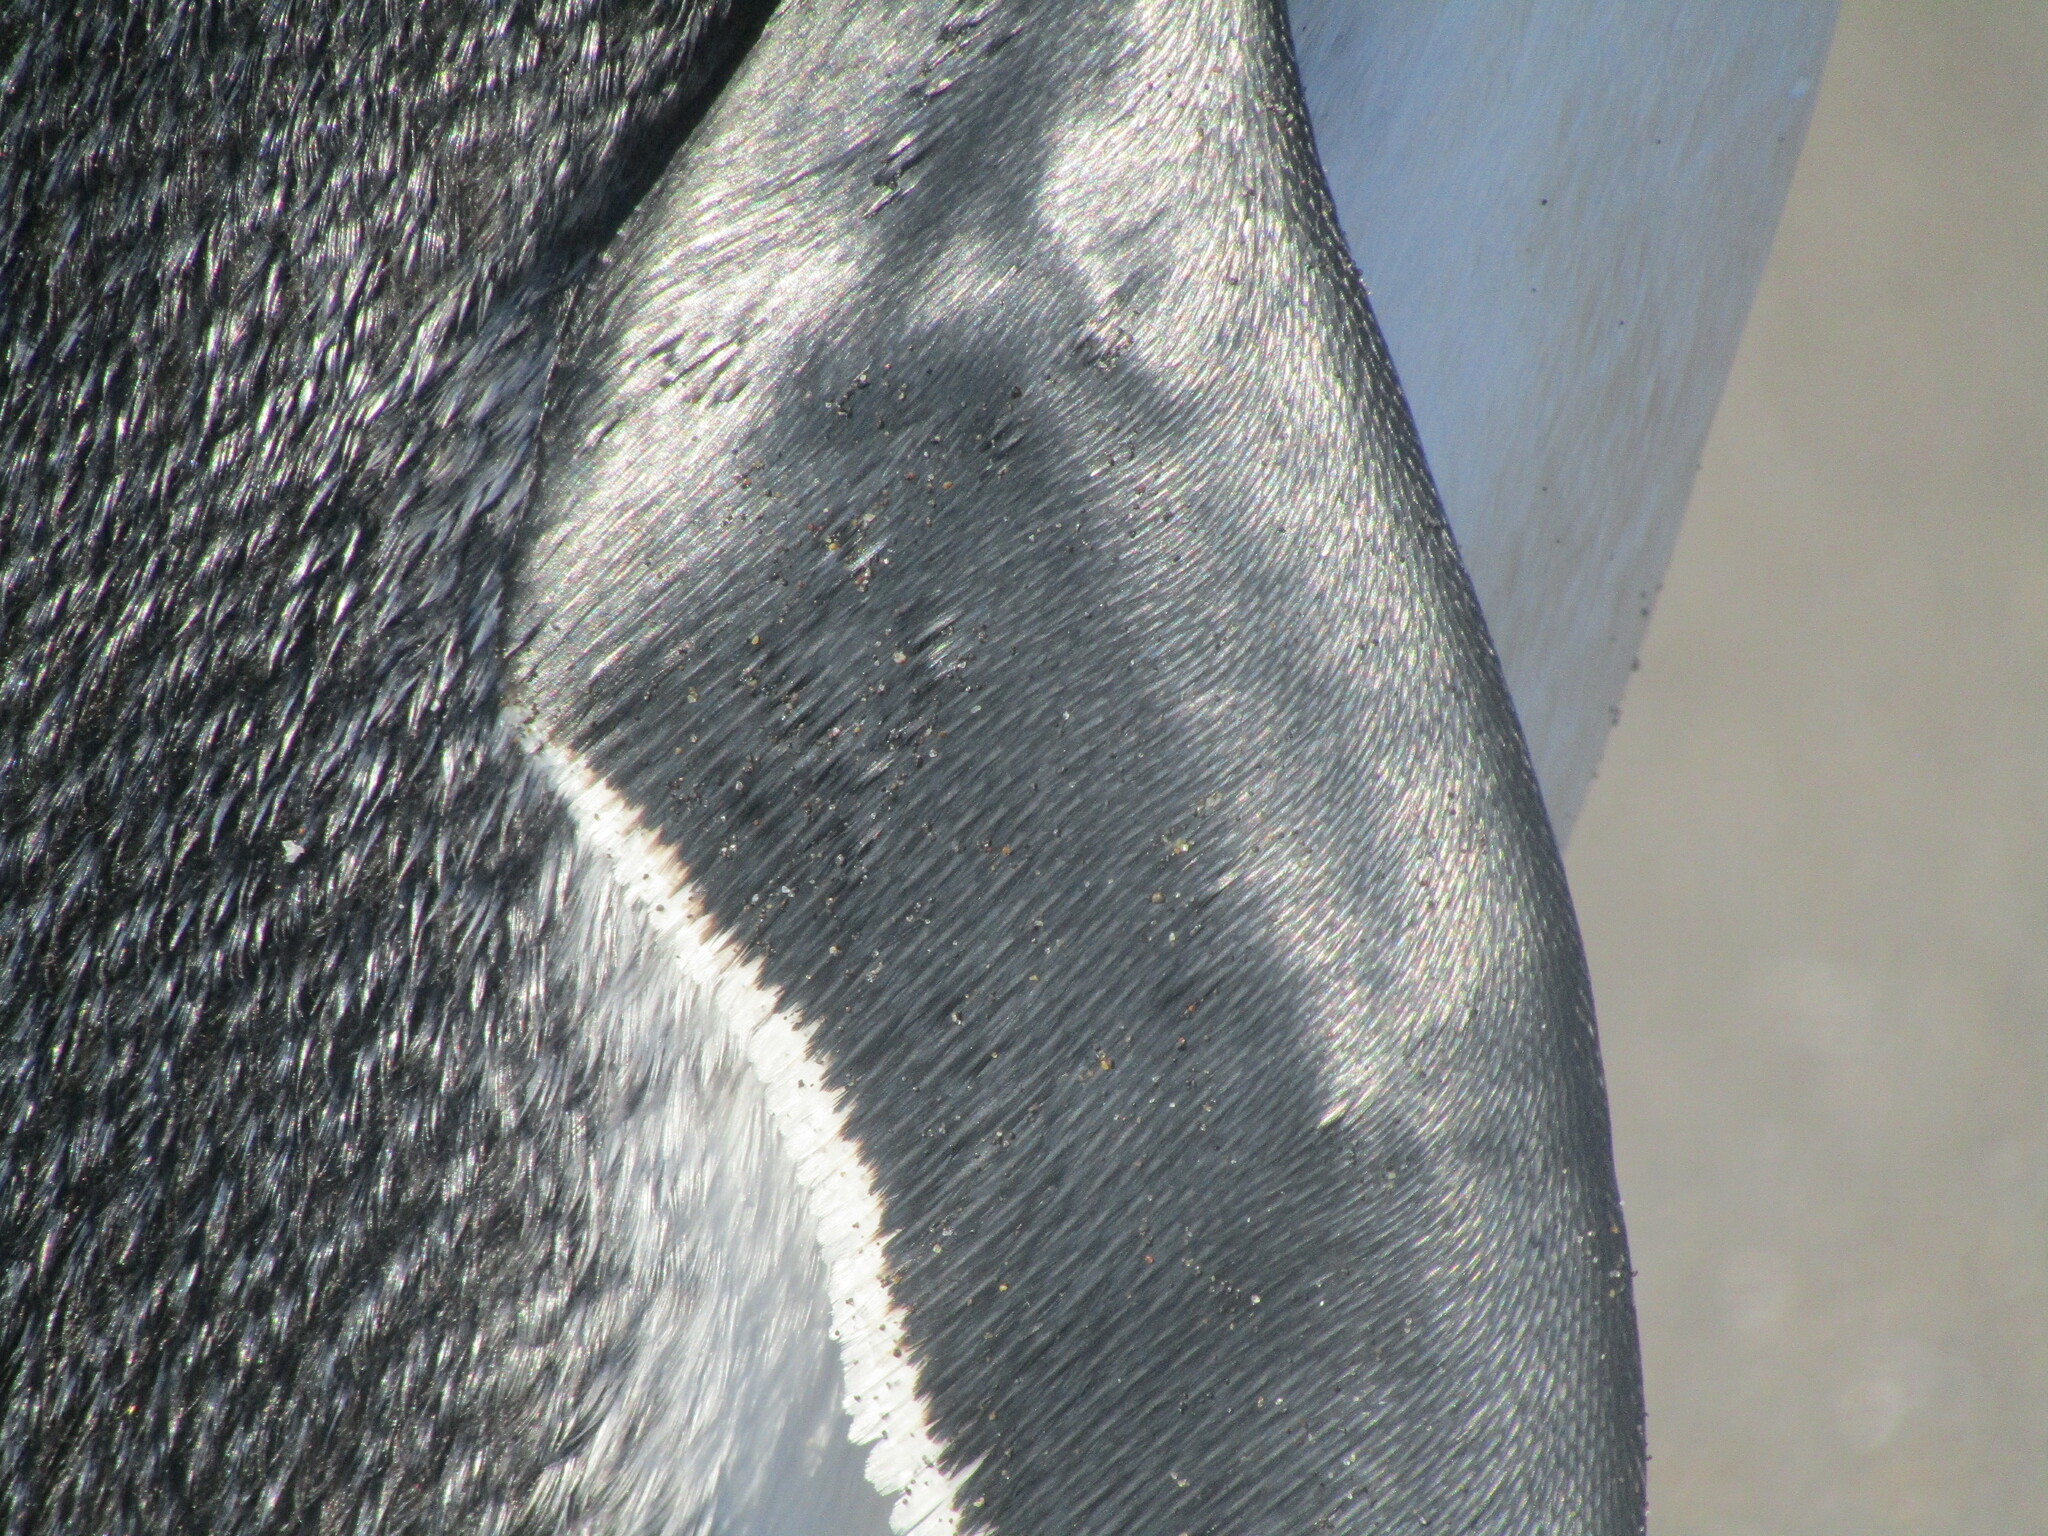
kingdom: Animalia
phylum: Chordata
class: Aves
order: Sphenisciformes
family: Spheniscidae
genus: Spheniscus
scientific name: Spheniscus magellanicus
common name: Magellanic penguin
